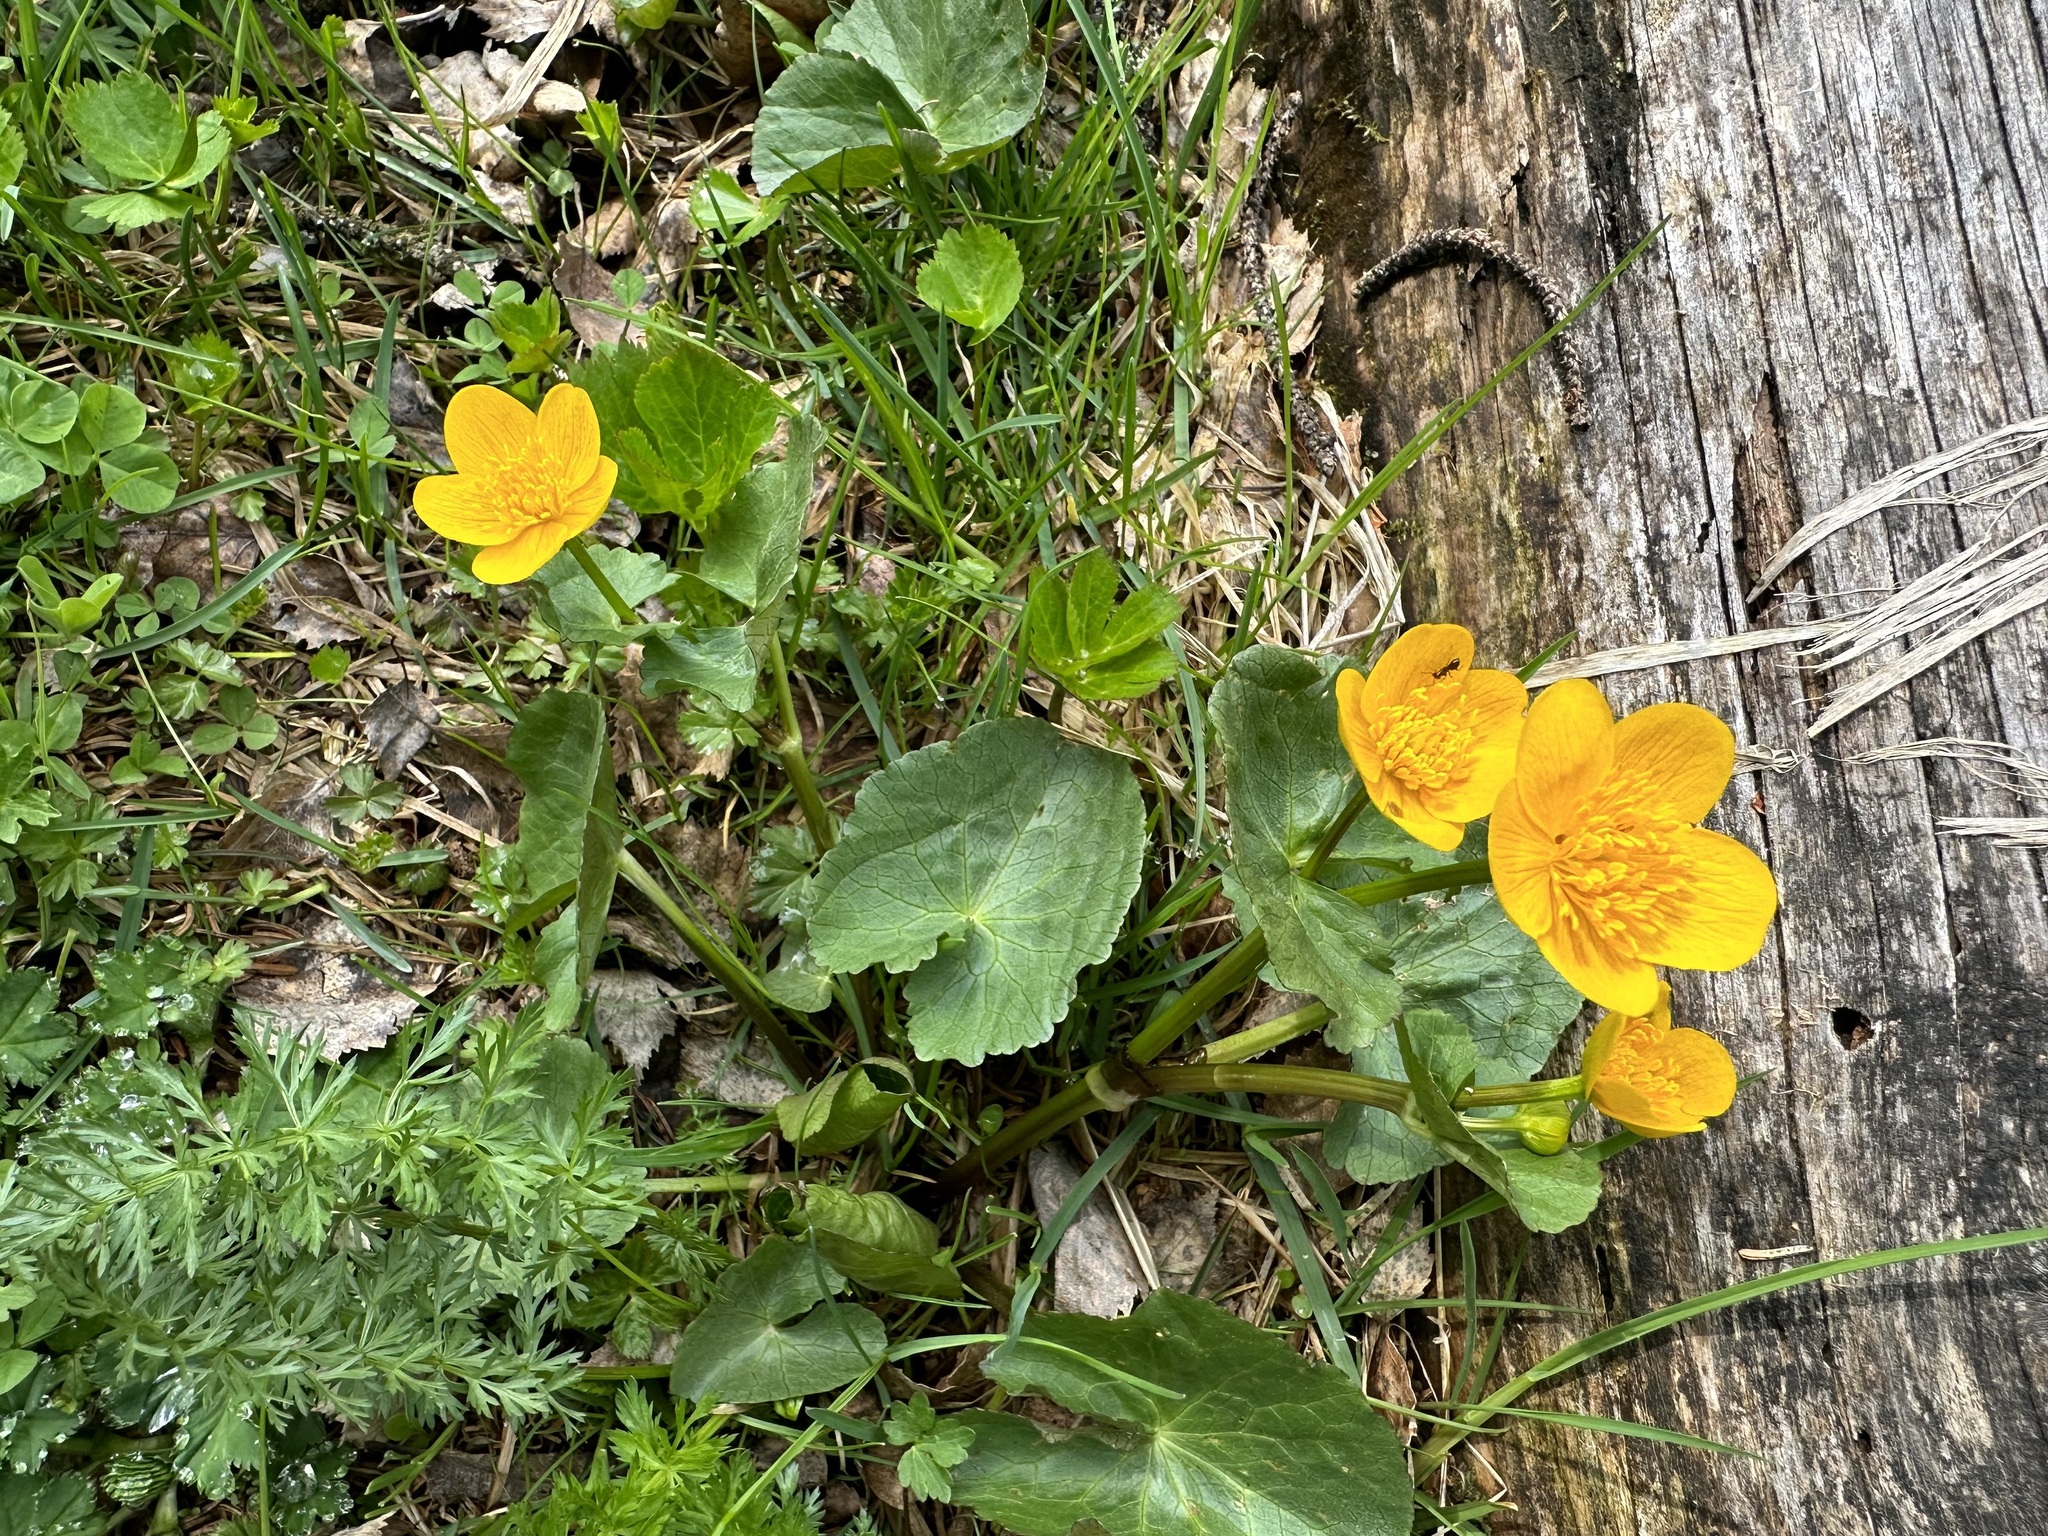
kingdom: Plantae
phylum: Tracheophyta
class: Magnoliopsida
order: Ranunculales
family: Ranunculaceae
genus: Caltha
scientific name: Caltha palustris
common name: Marsh marigold
